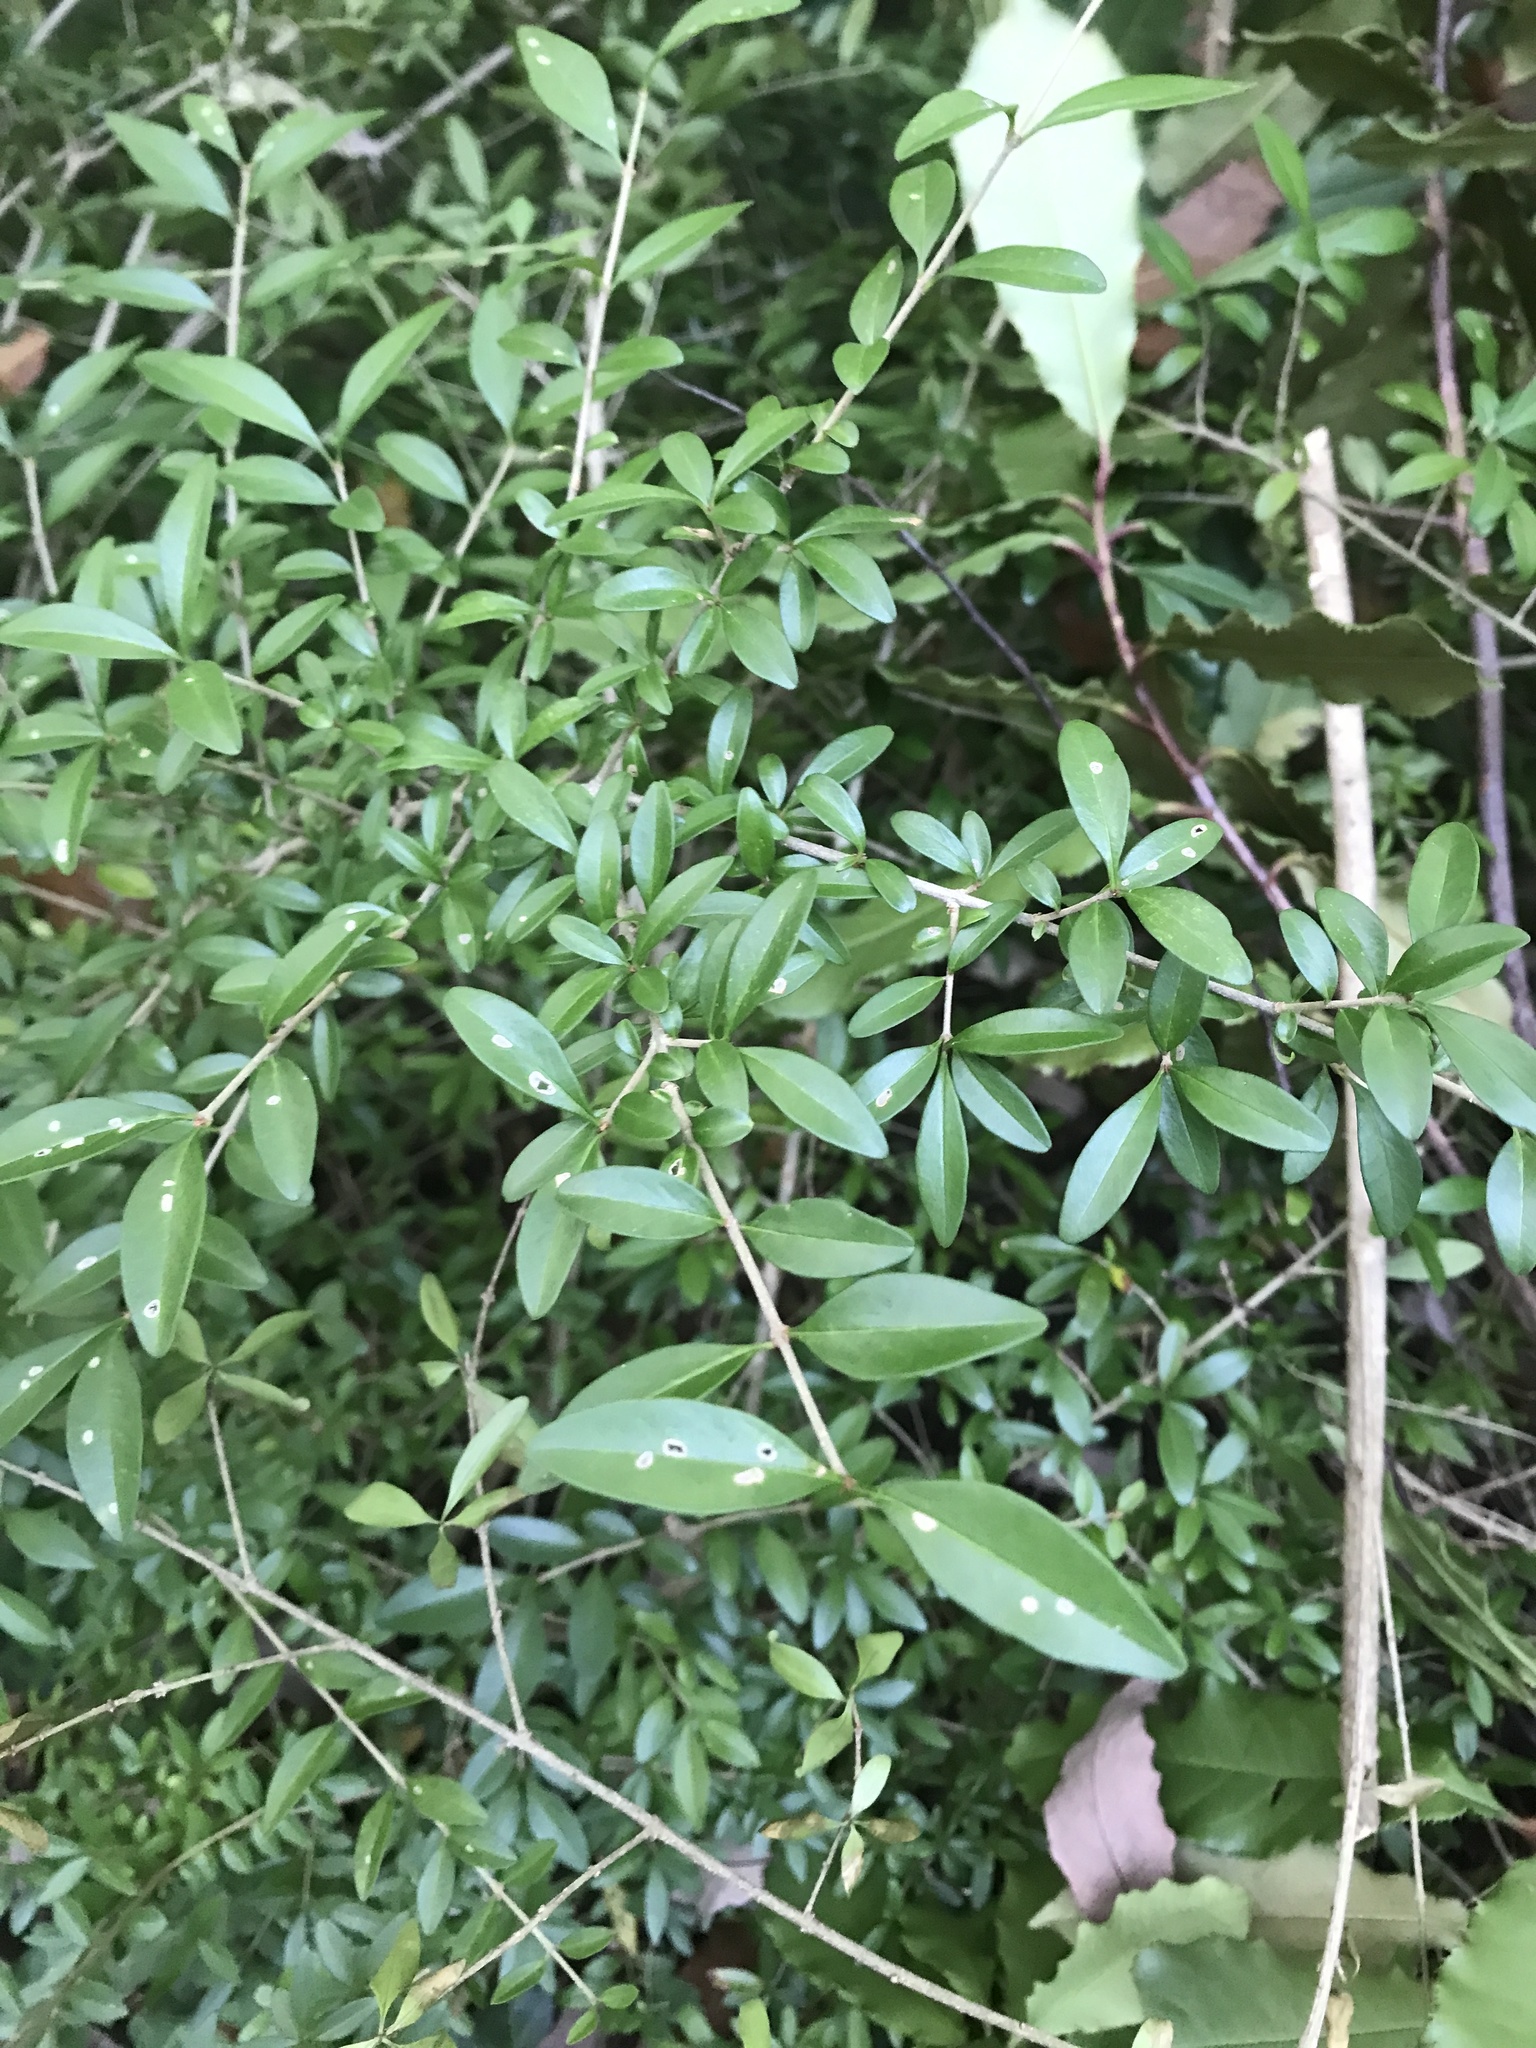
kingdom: Plantae
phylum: Tracheophyta
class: Magnoliopsida
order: Lamiales
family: Oleaceae
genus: Ligustrum
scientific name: Ligustrum quihoui
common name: Waxyleaf privet
